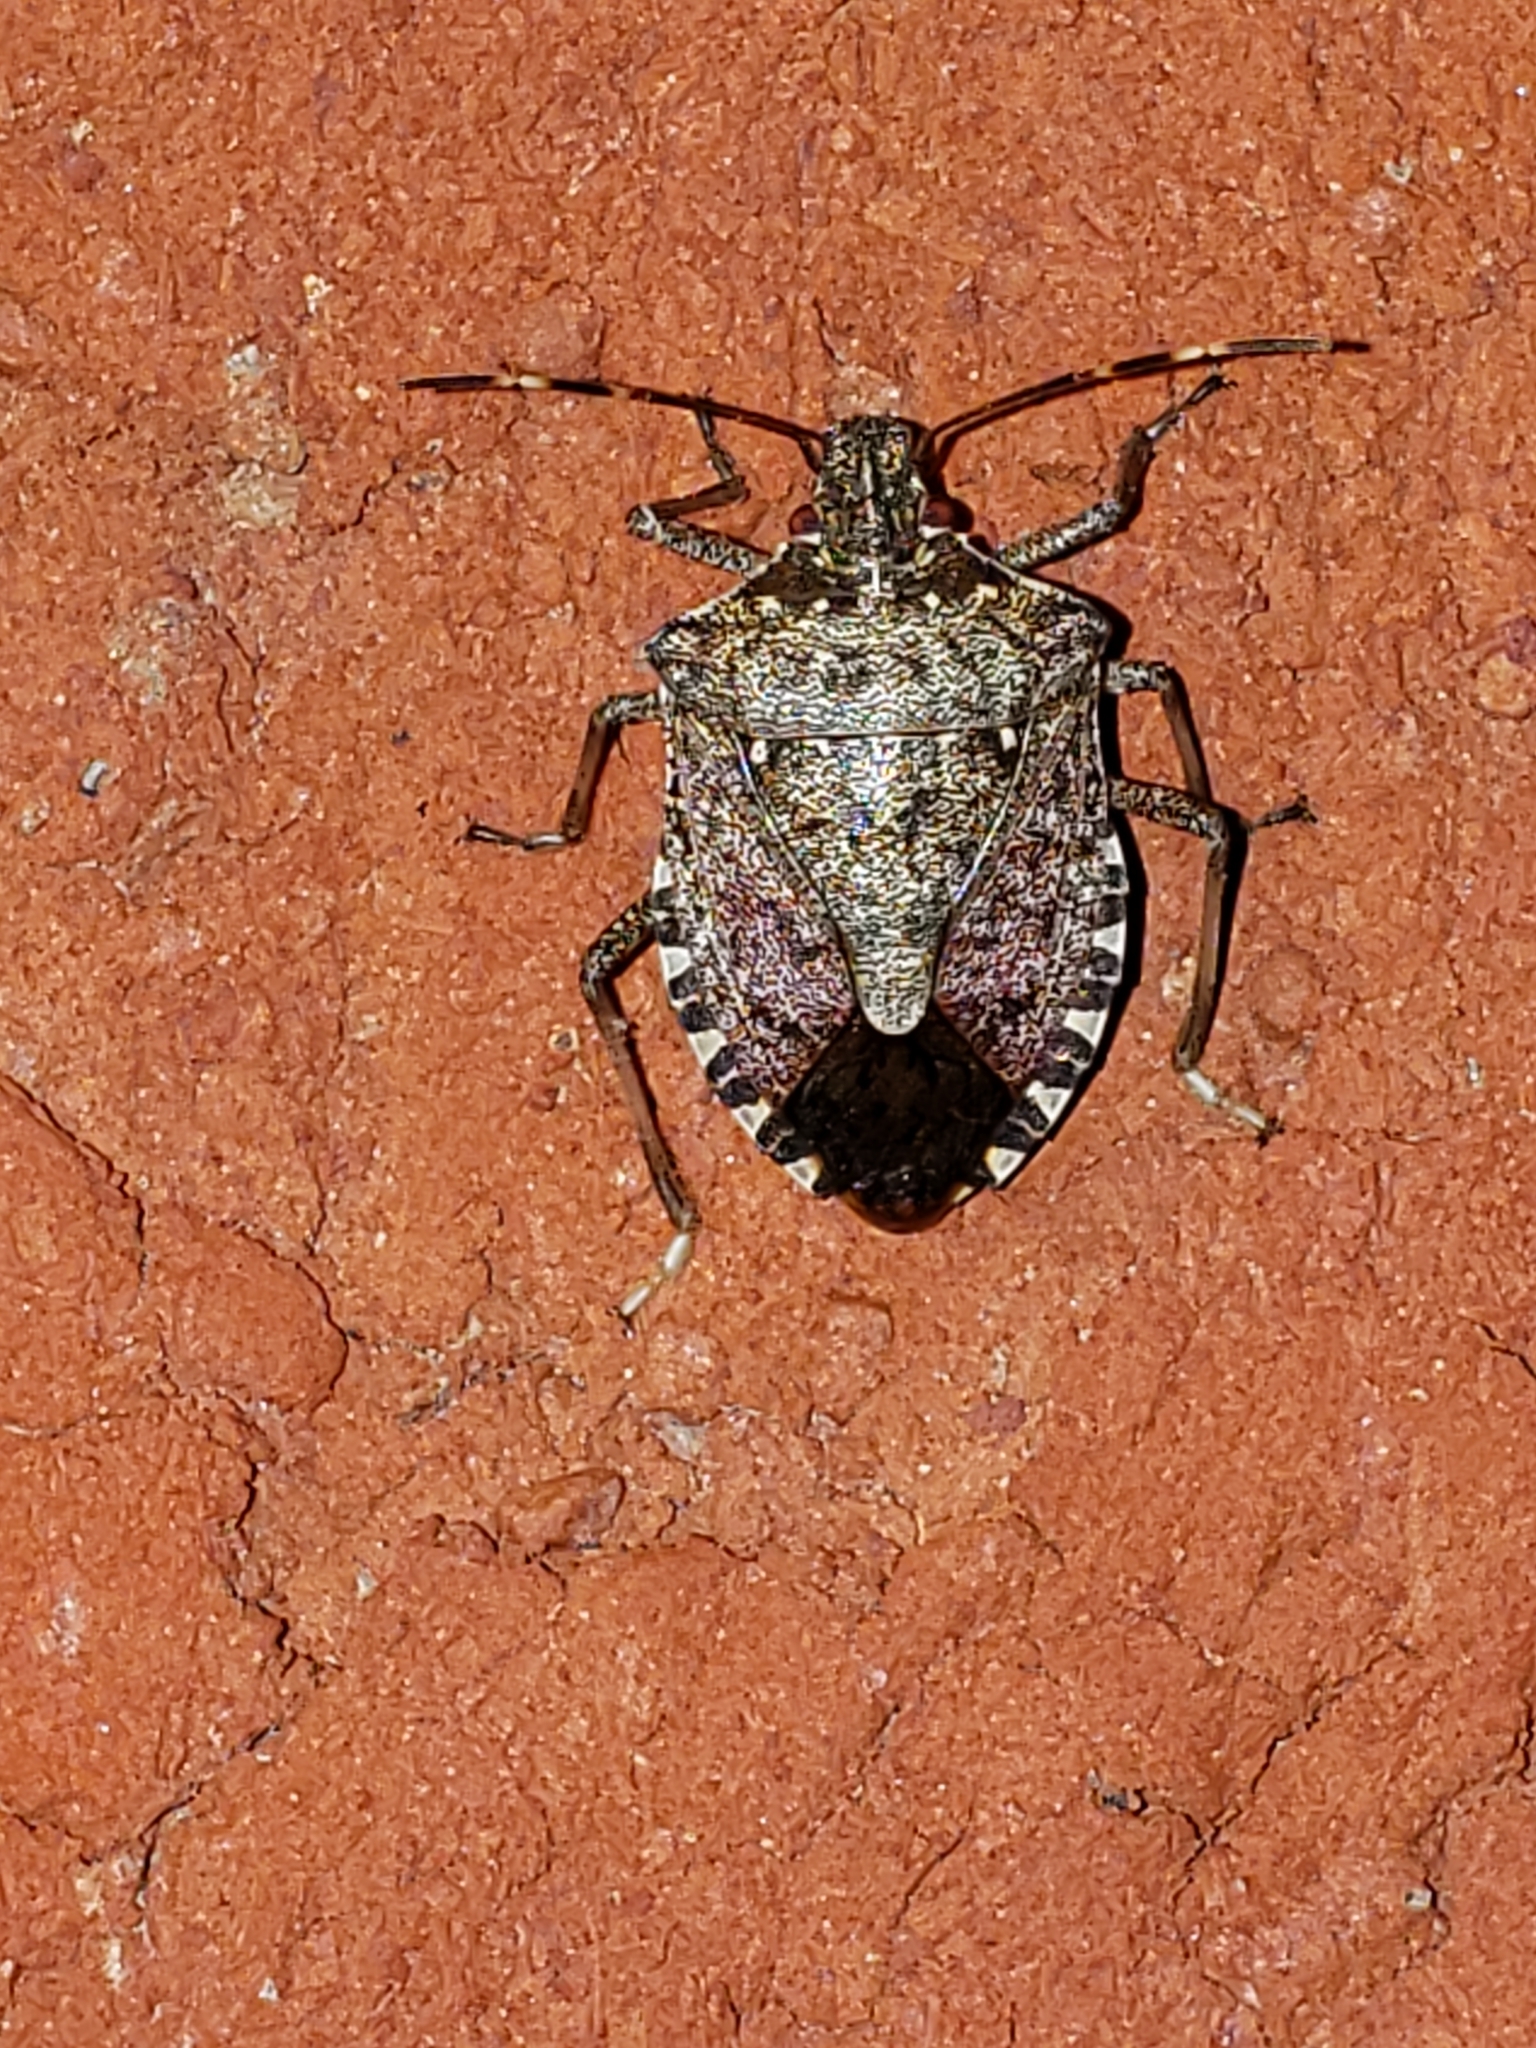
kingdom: Animalia
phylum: Arthropoda
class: Insecta
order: Hemiptera
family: Pentatomidae
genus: Halyomorpha
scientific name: Halyomorpha halys
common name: Brown marmorated stink bug
